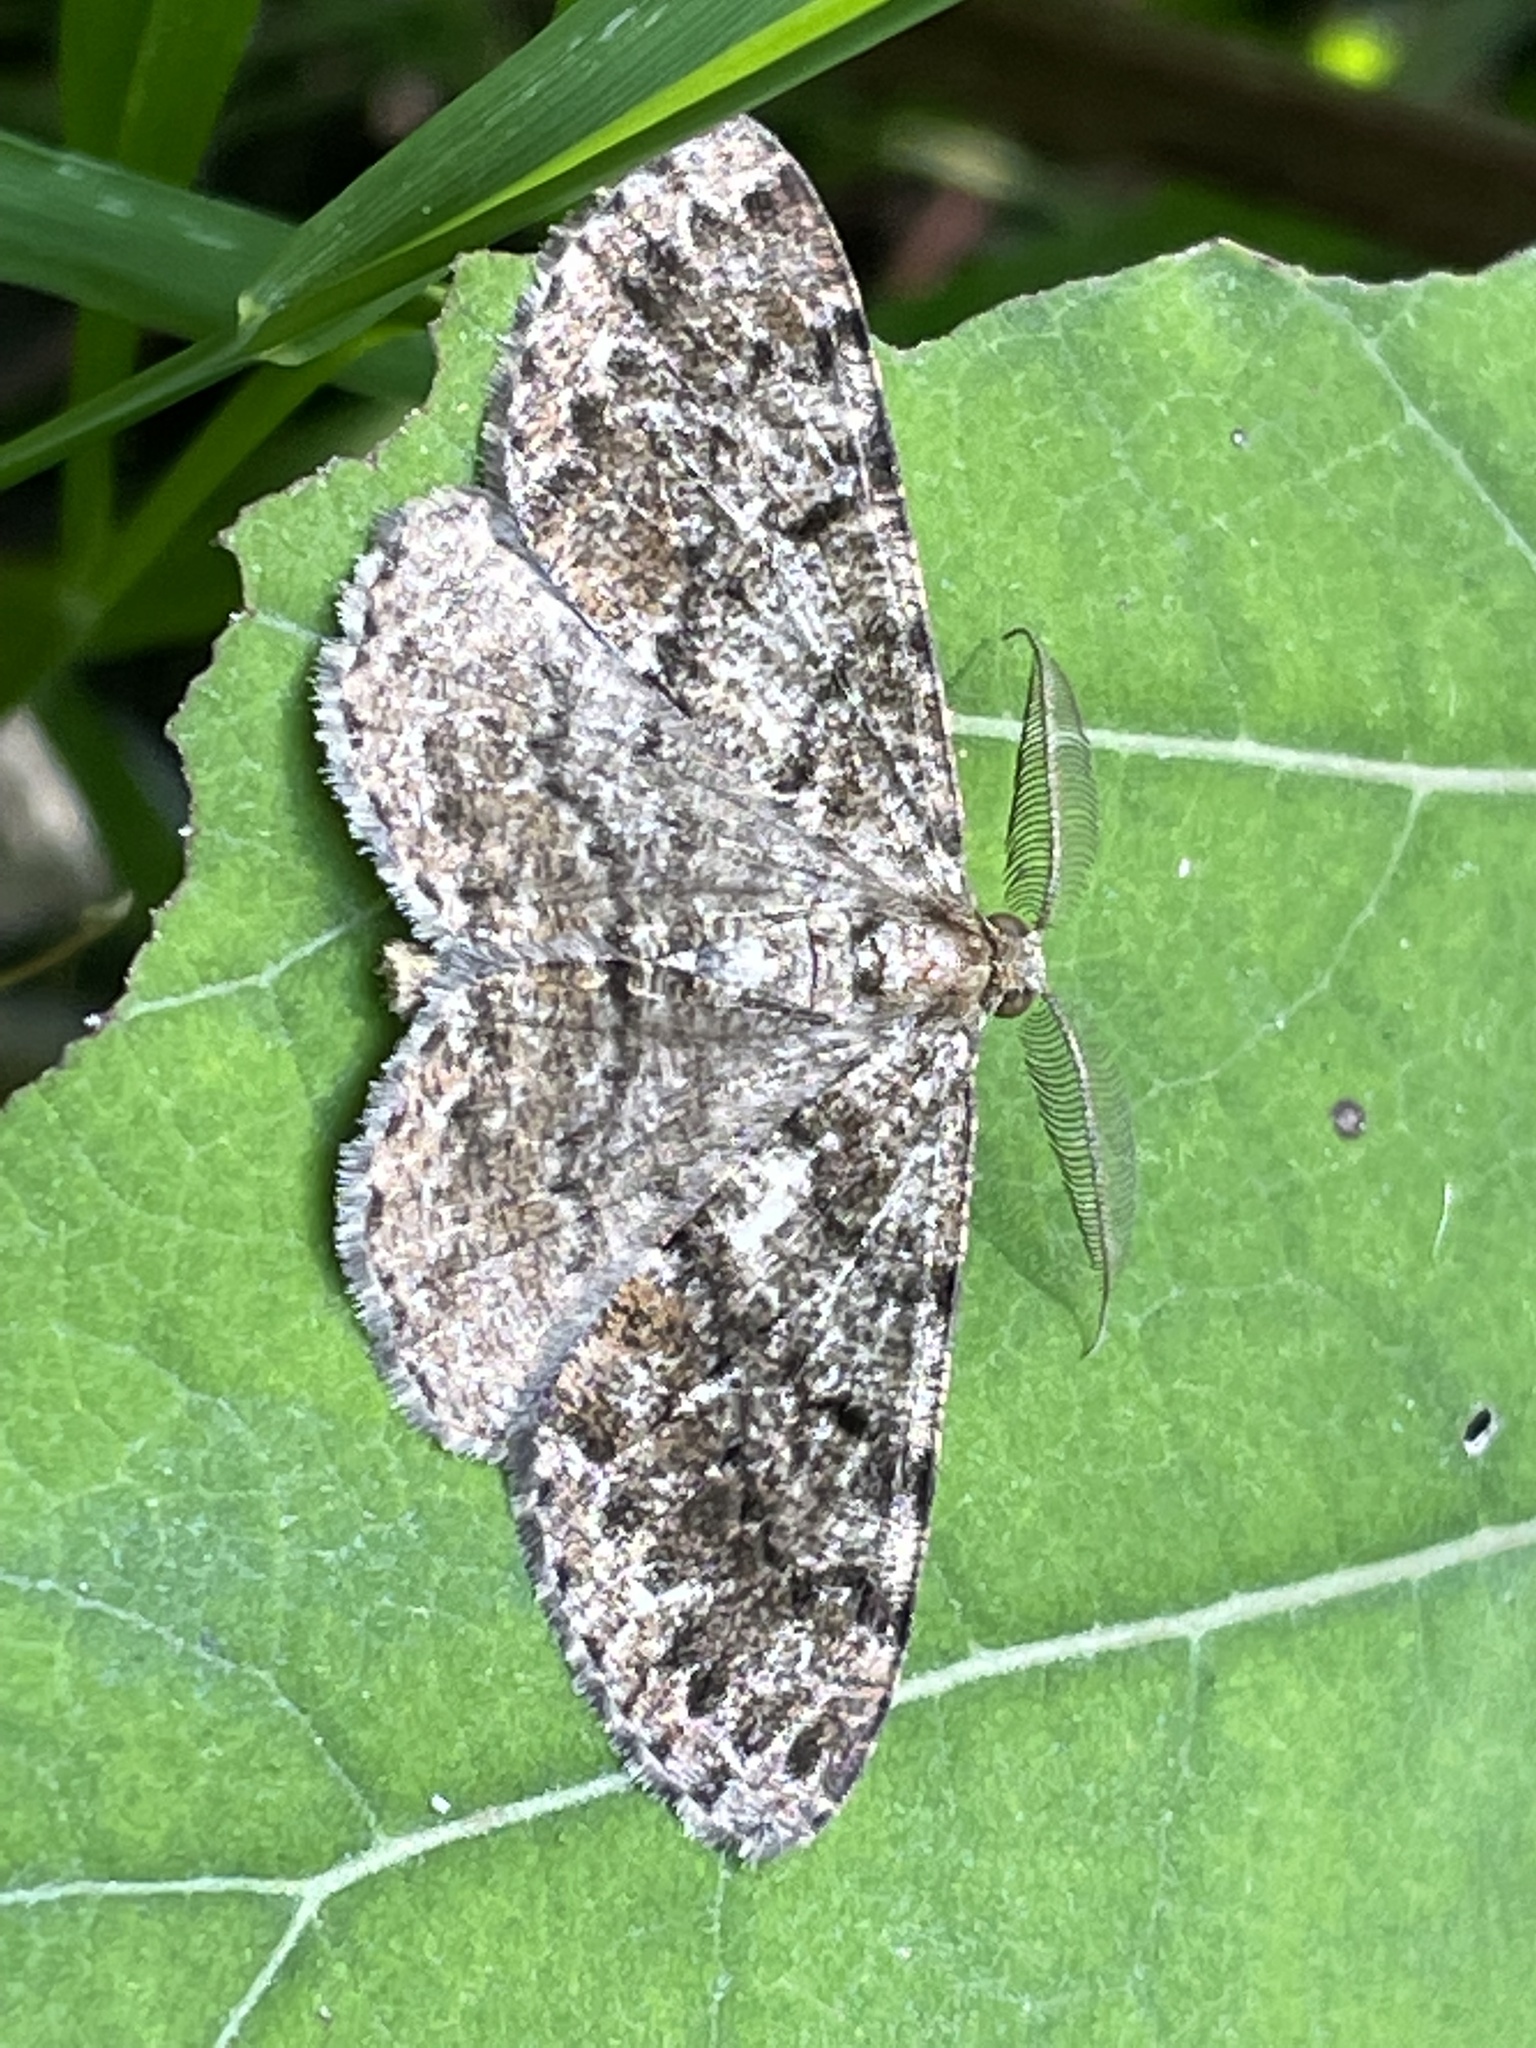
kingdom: Animalia
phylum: Arthropoda
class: Insecta
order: Lepidoptera
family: Geometridae
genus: Deileptenia
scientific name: Deileptenia ribeata
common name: Satin beauty
